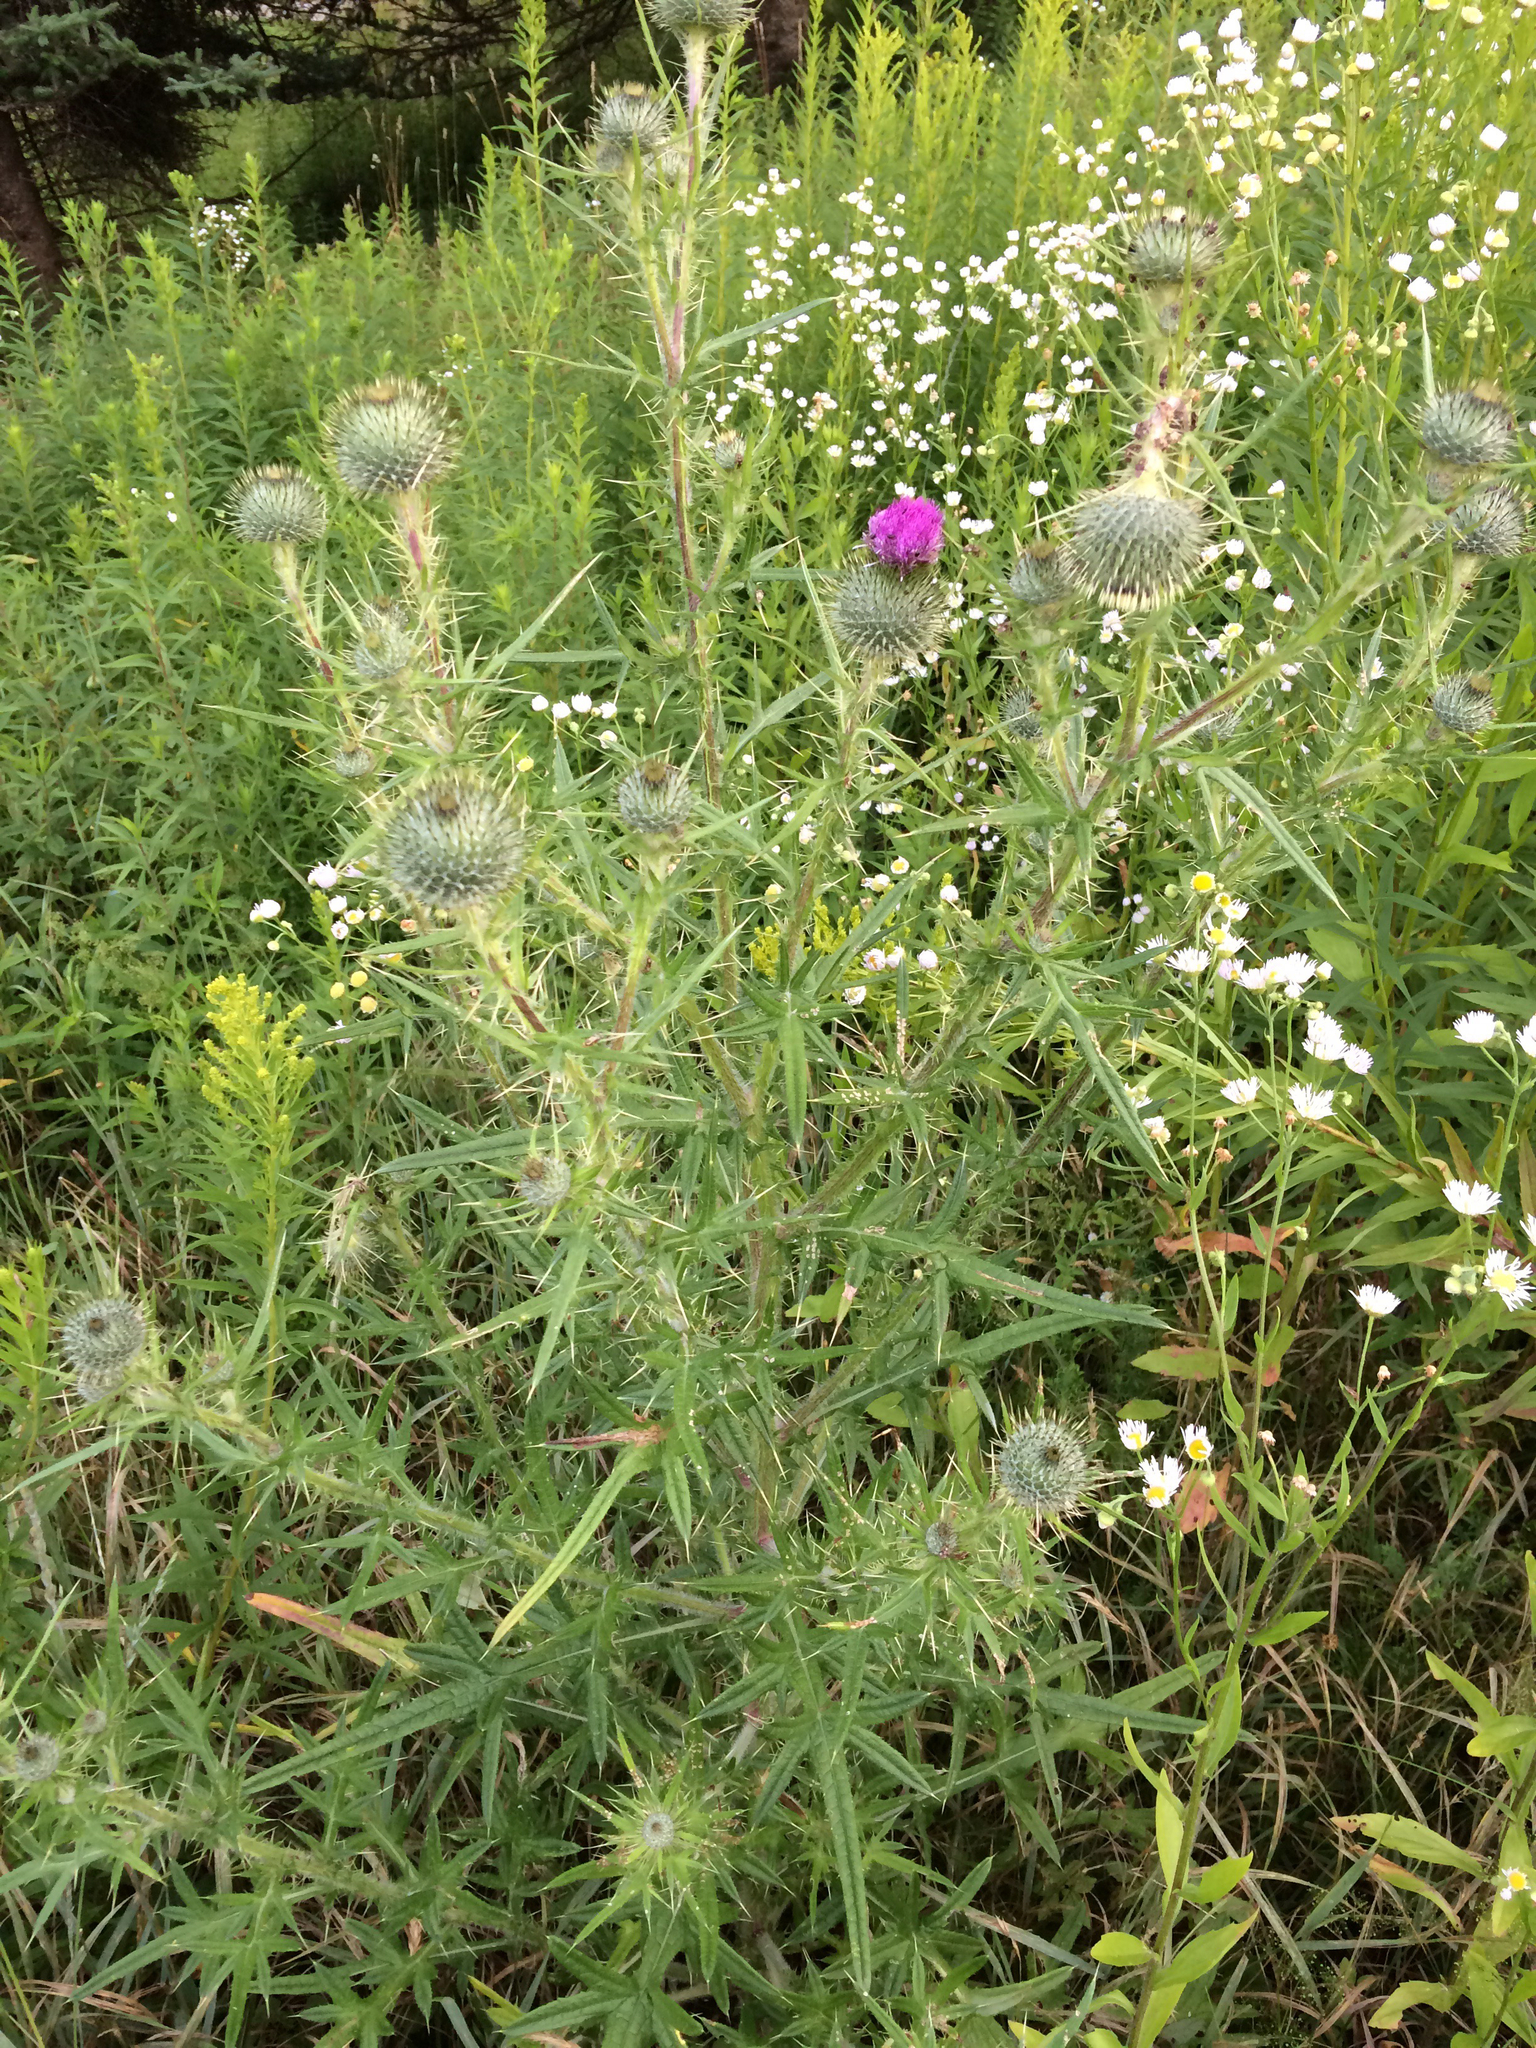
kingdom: Plantae
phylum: Tracheophyta
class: Magnoliopsida
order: Asterales
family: Asteraceae
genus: Cirsium
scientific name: Cirsium vulgare
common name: Bull thistle
